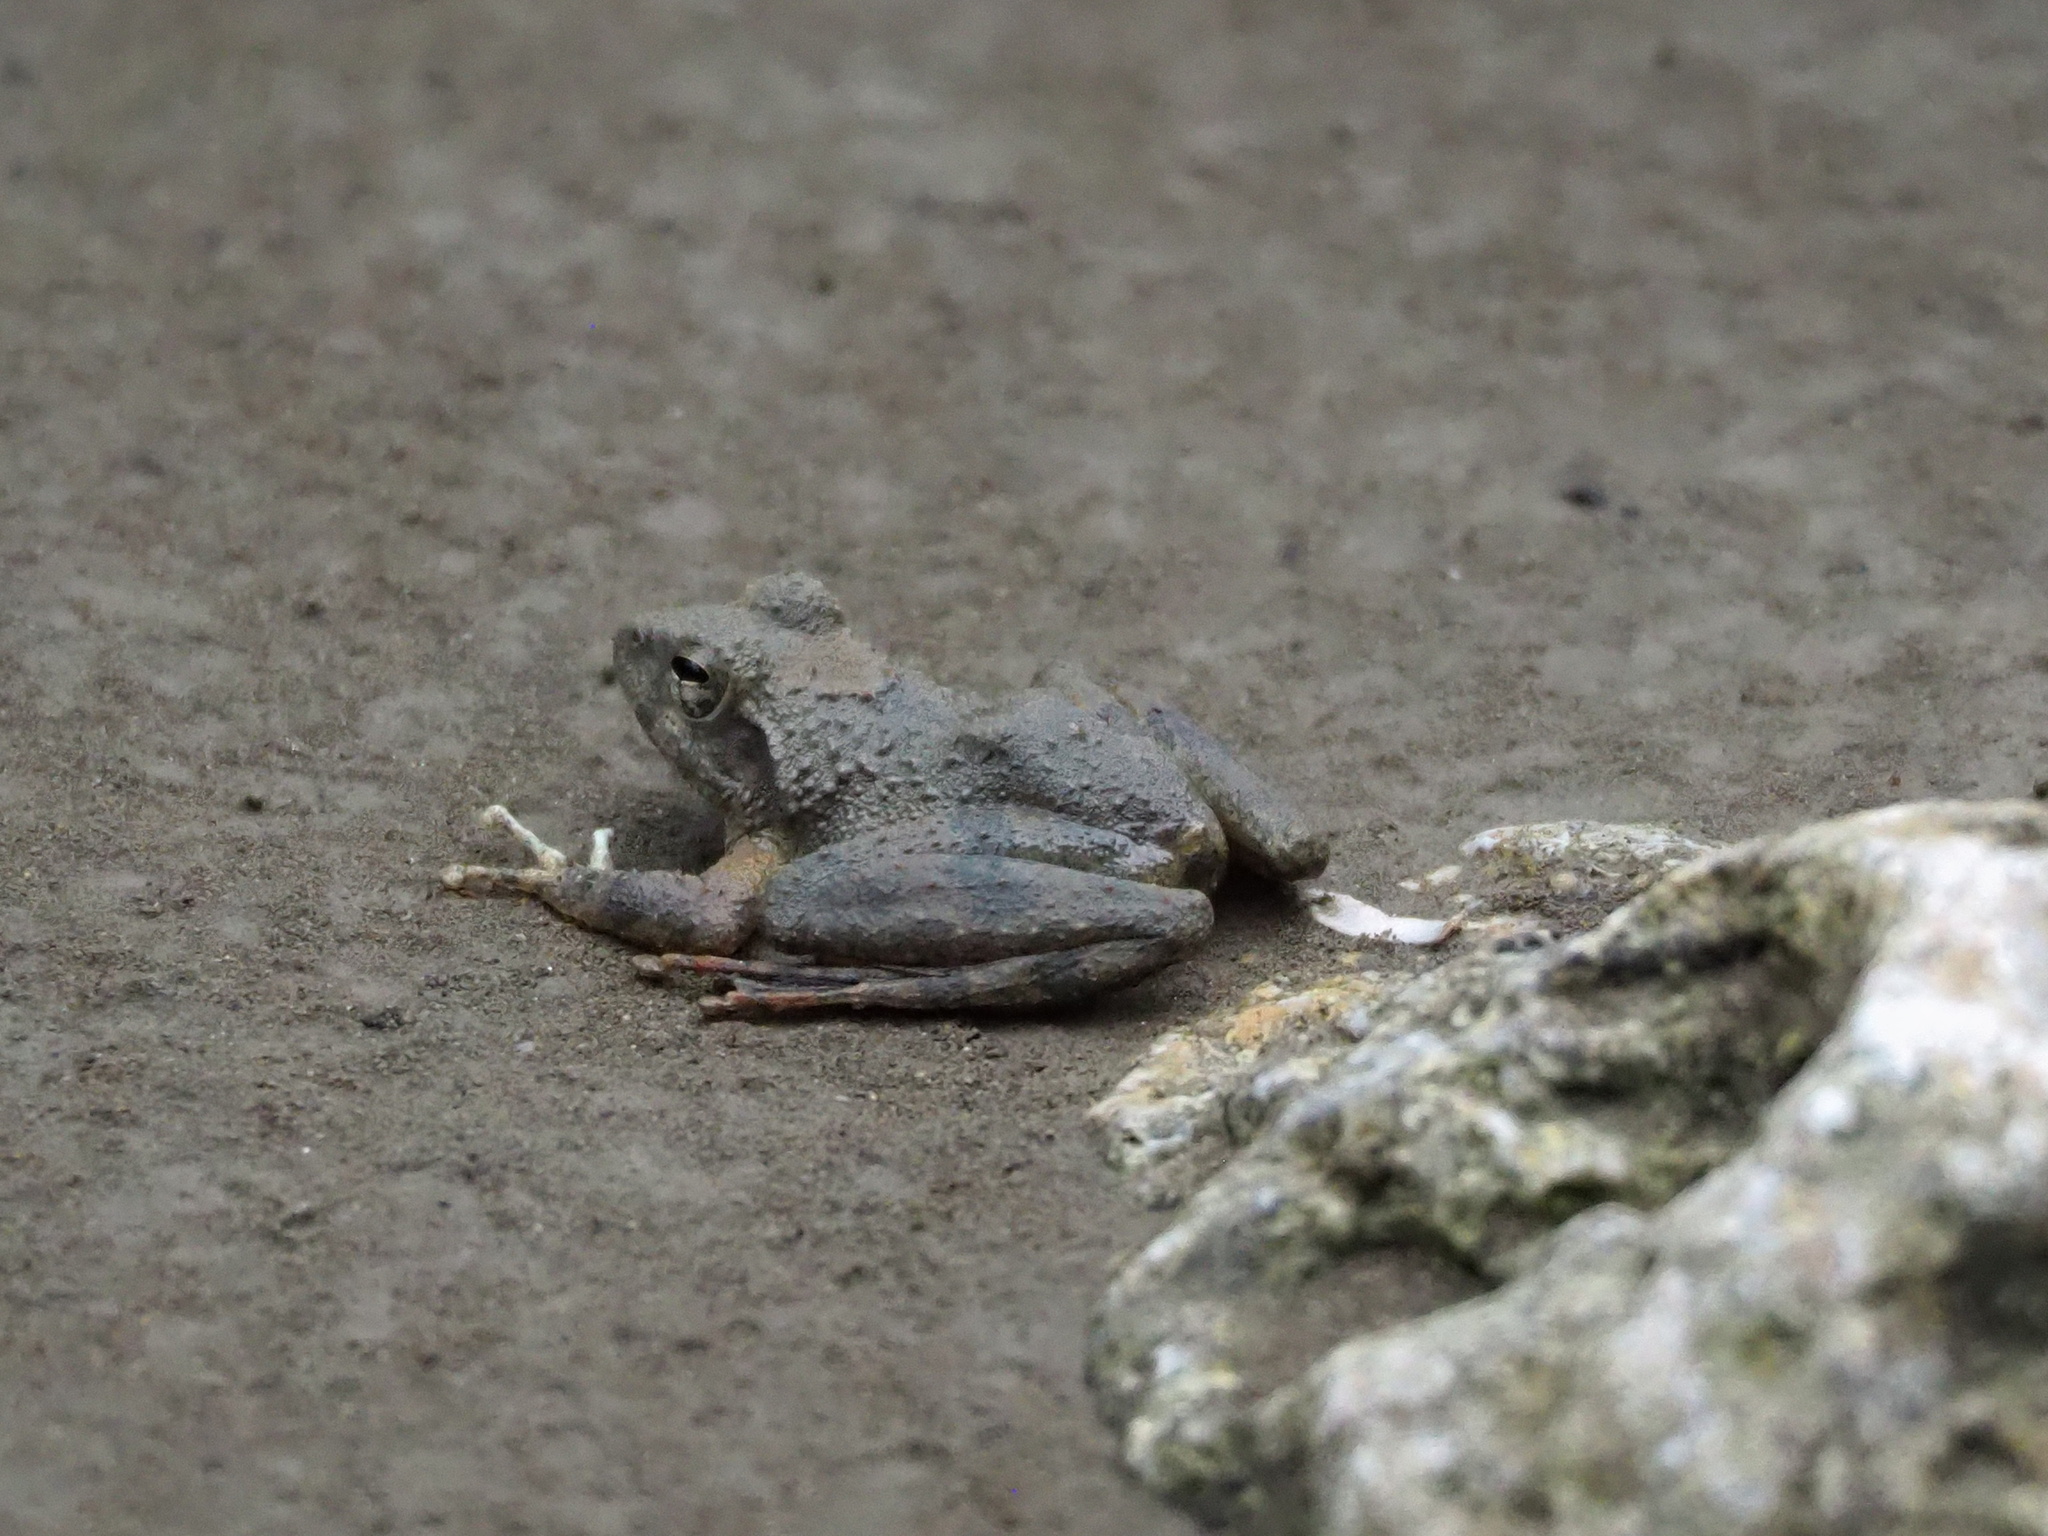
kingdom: Animalia
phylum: Chordata
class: Amphibia
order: Anura
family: Rhacophoridae
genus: Buergeria
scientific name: Buergeria otai
